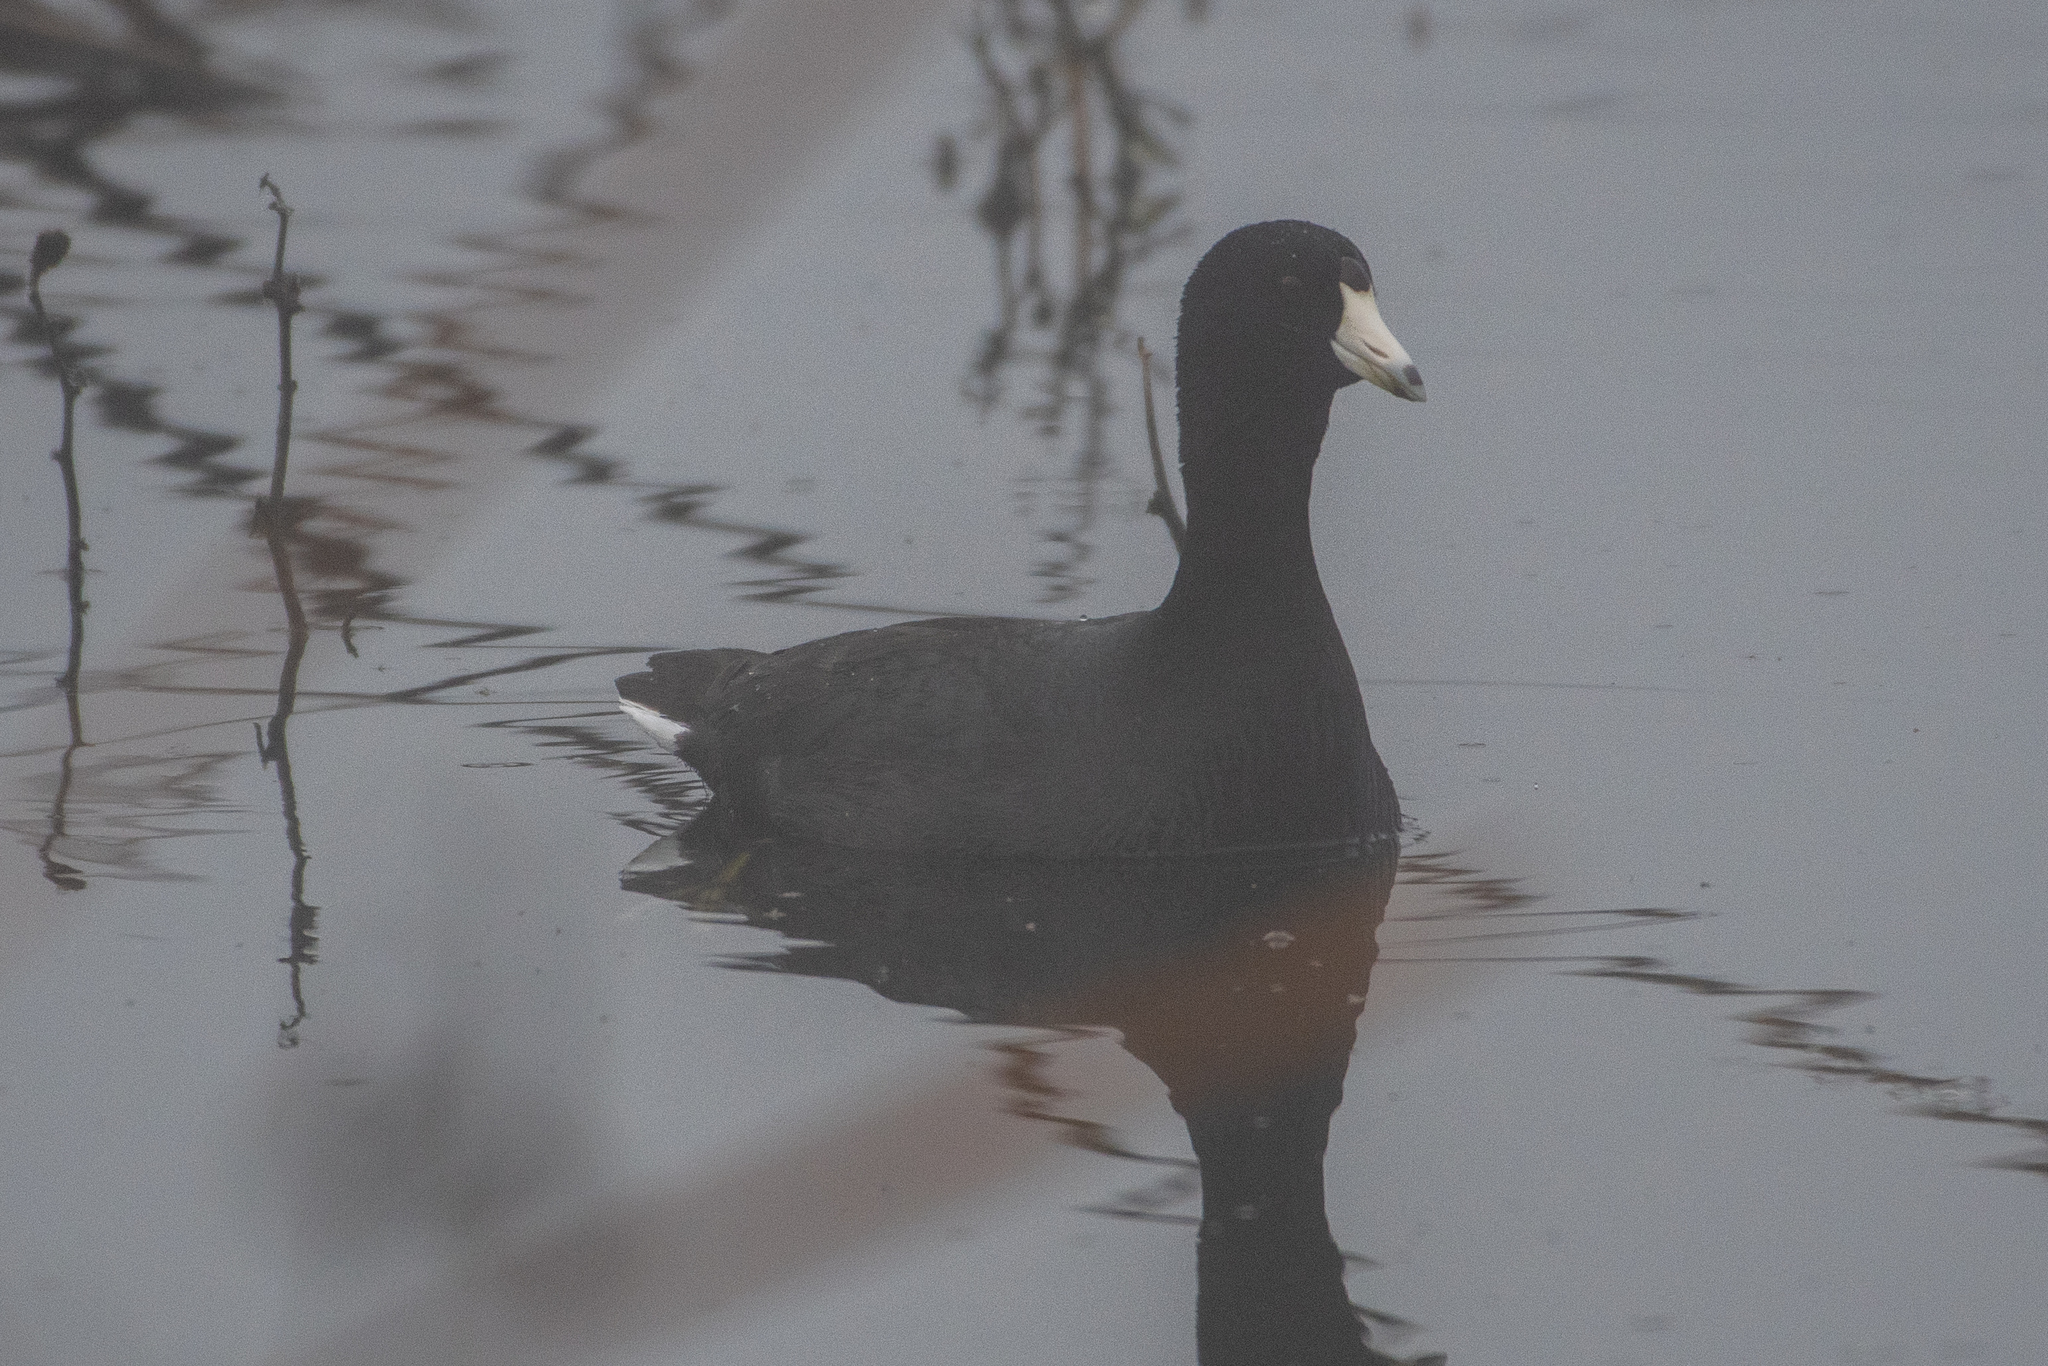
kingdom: Animalia
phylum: Chordata
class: Aves
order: Gruiformes
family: Rallidae
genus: Fulica
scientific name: Fulica americana
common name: American coot
